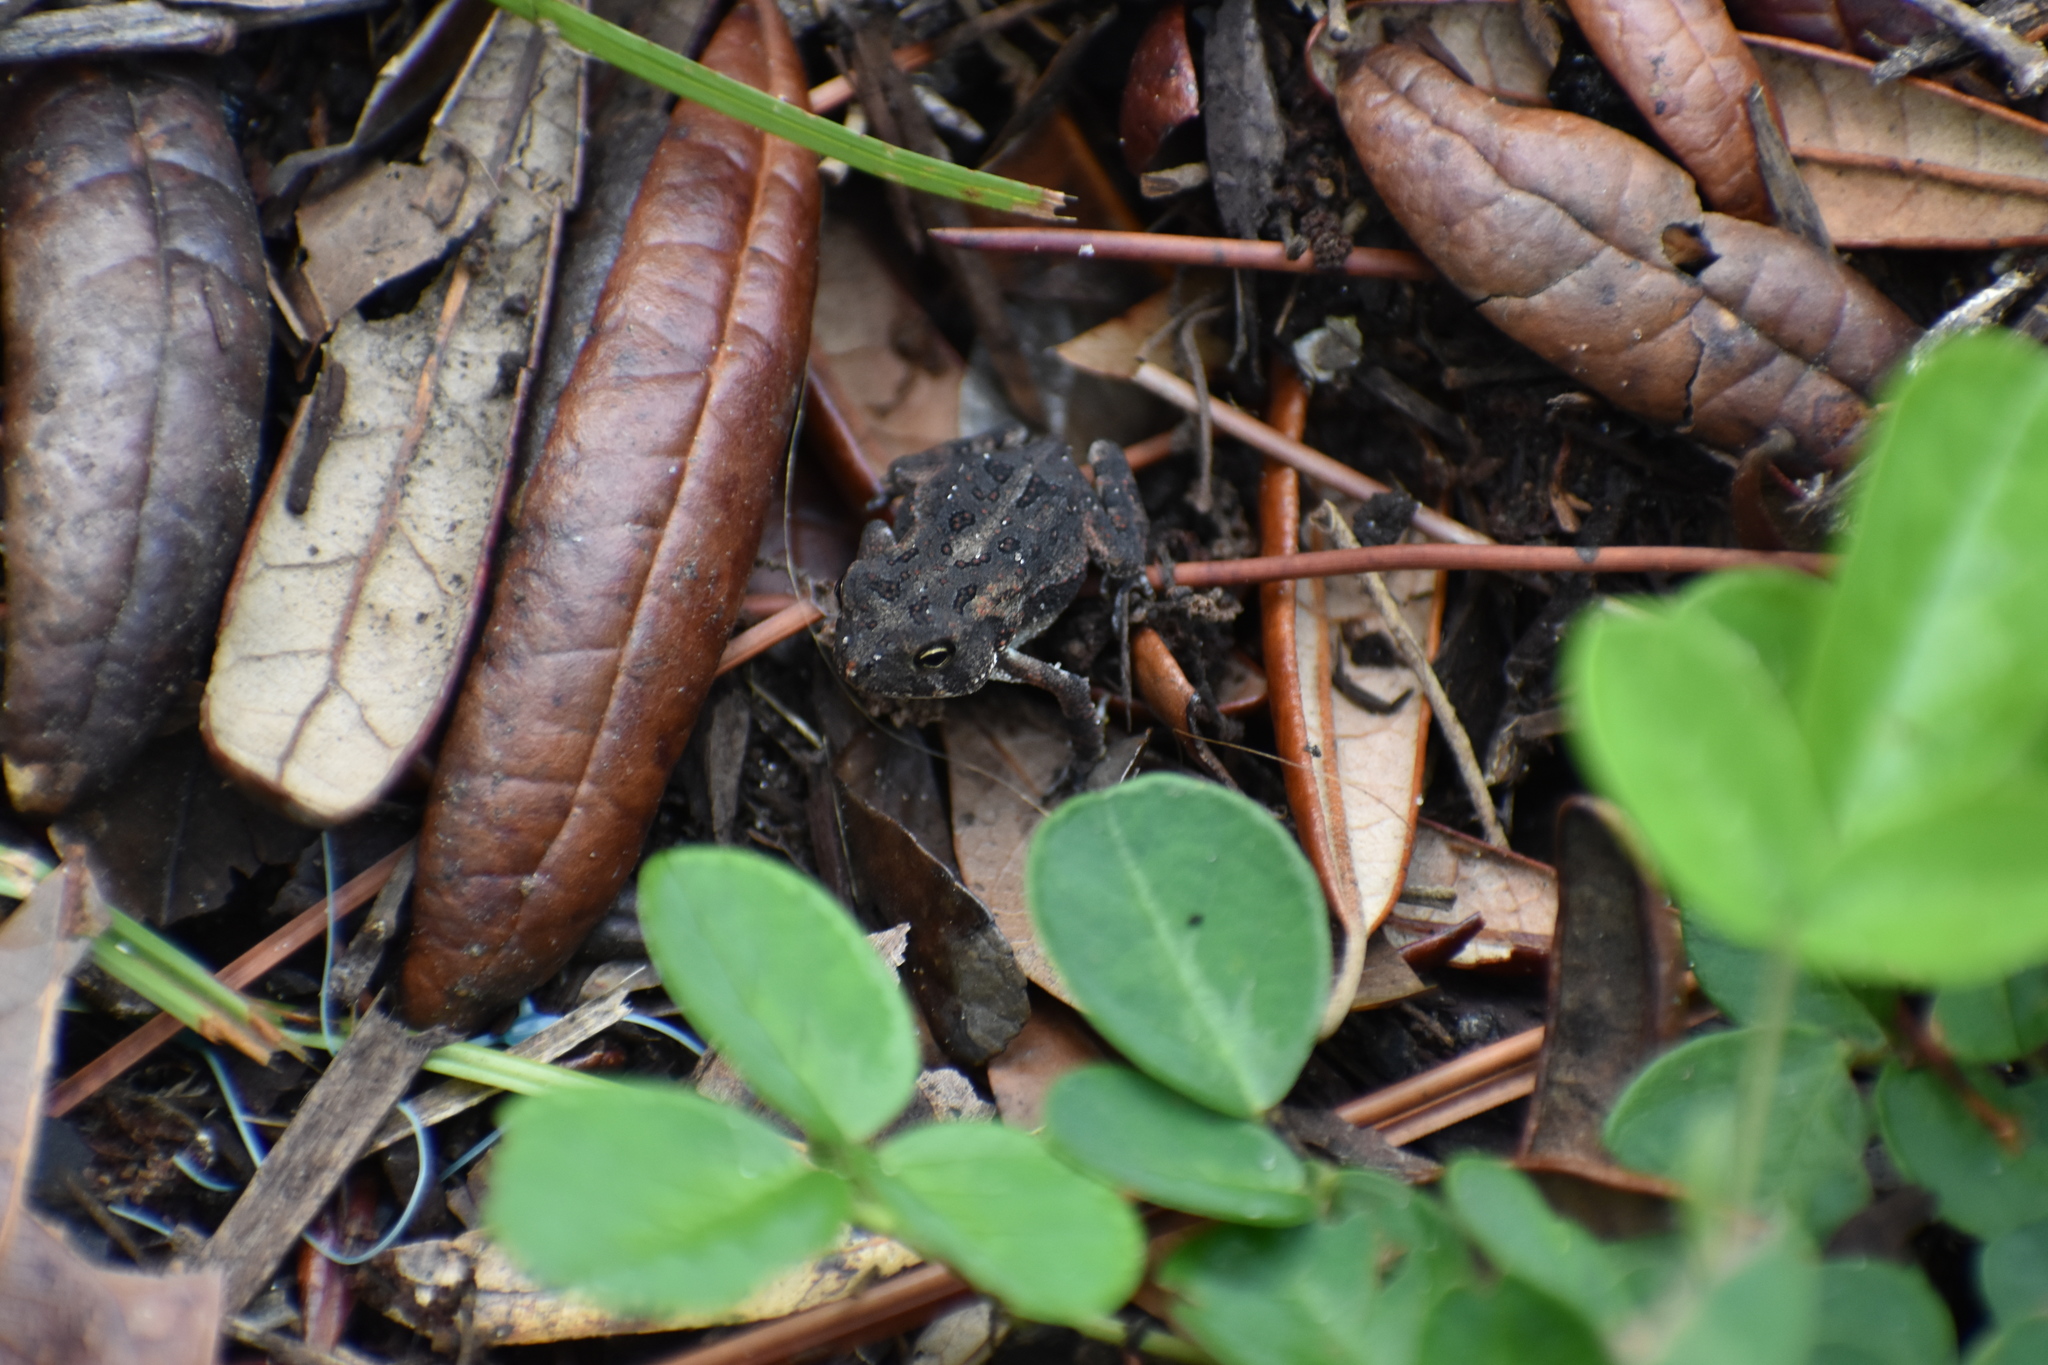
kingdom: Animalia
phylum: Chordata
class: Amphibia
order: Anura
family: Bufonidae
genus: Anaxyrus
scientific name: Anaxyrus terrestris
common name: Southern toad
